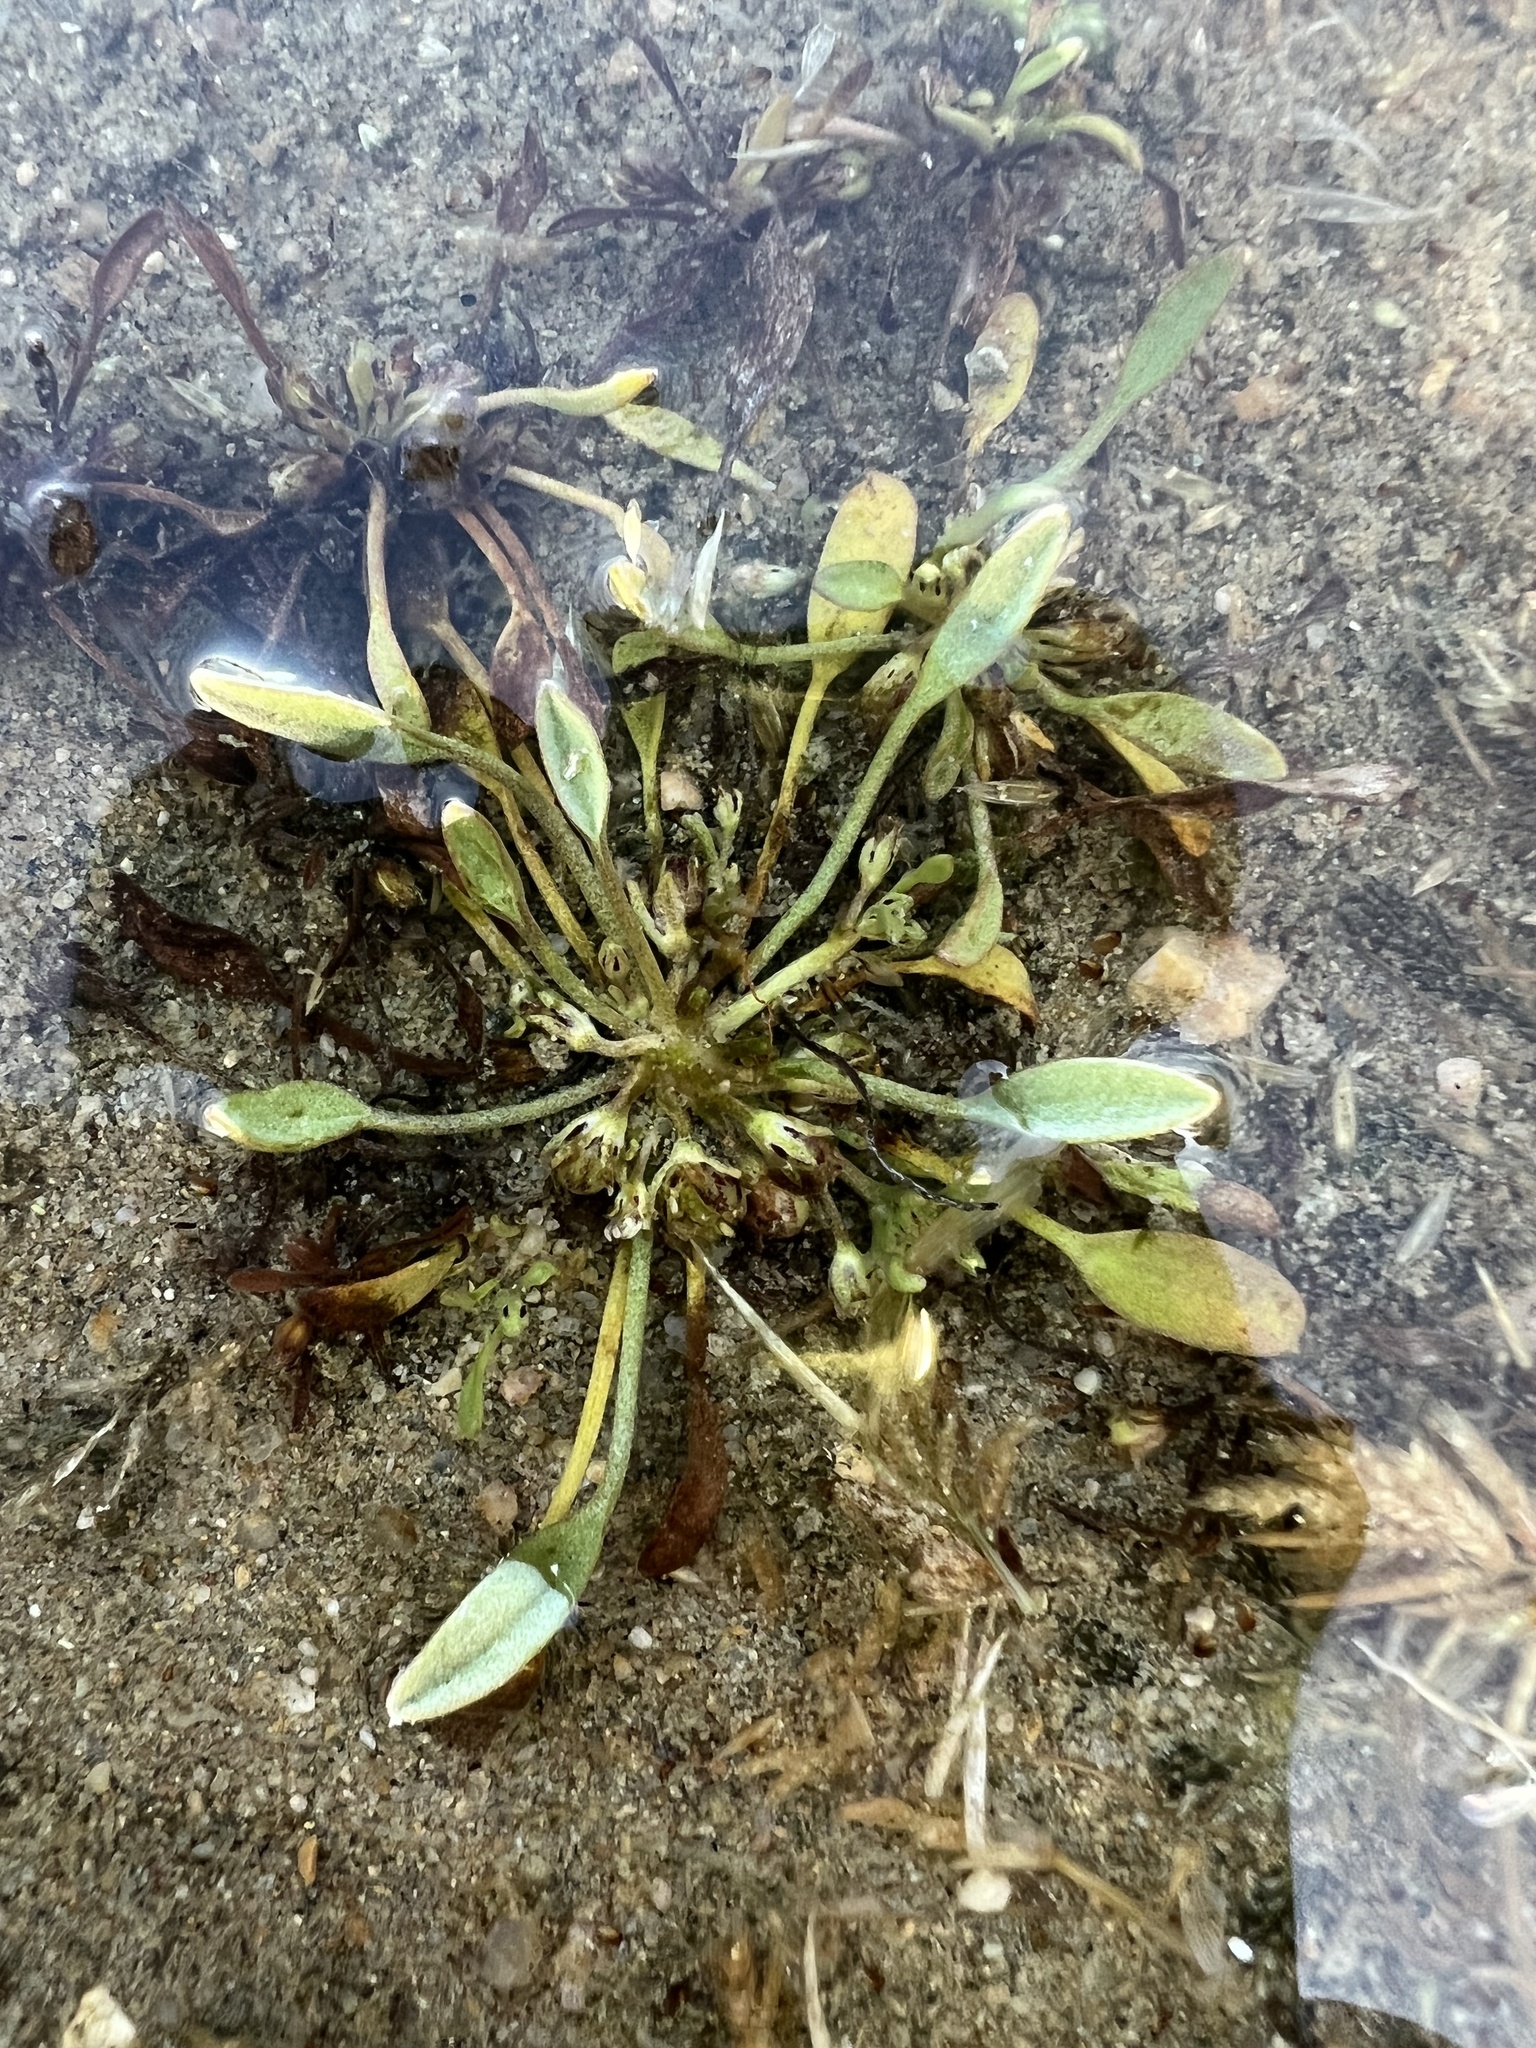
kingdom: Plantae
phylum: Tracheophyta
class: Magnoliopsida
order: Lamiales
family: Scrophulariaceae
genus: Limosella
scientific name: Limosella aquatica
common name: Mudwort
